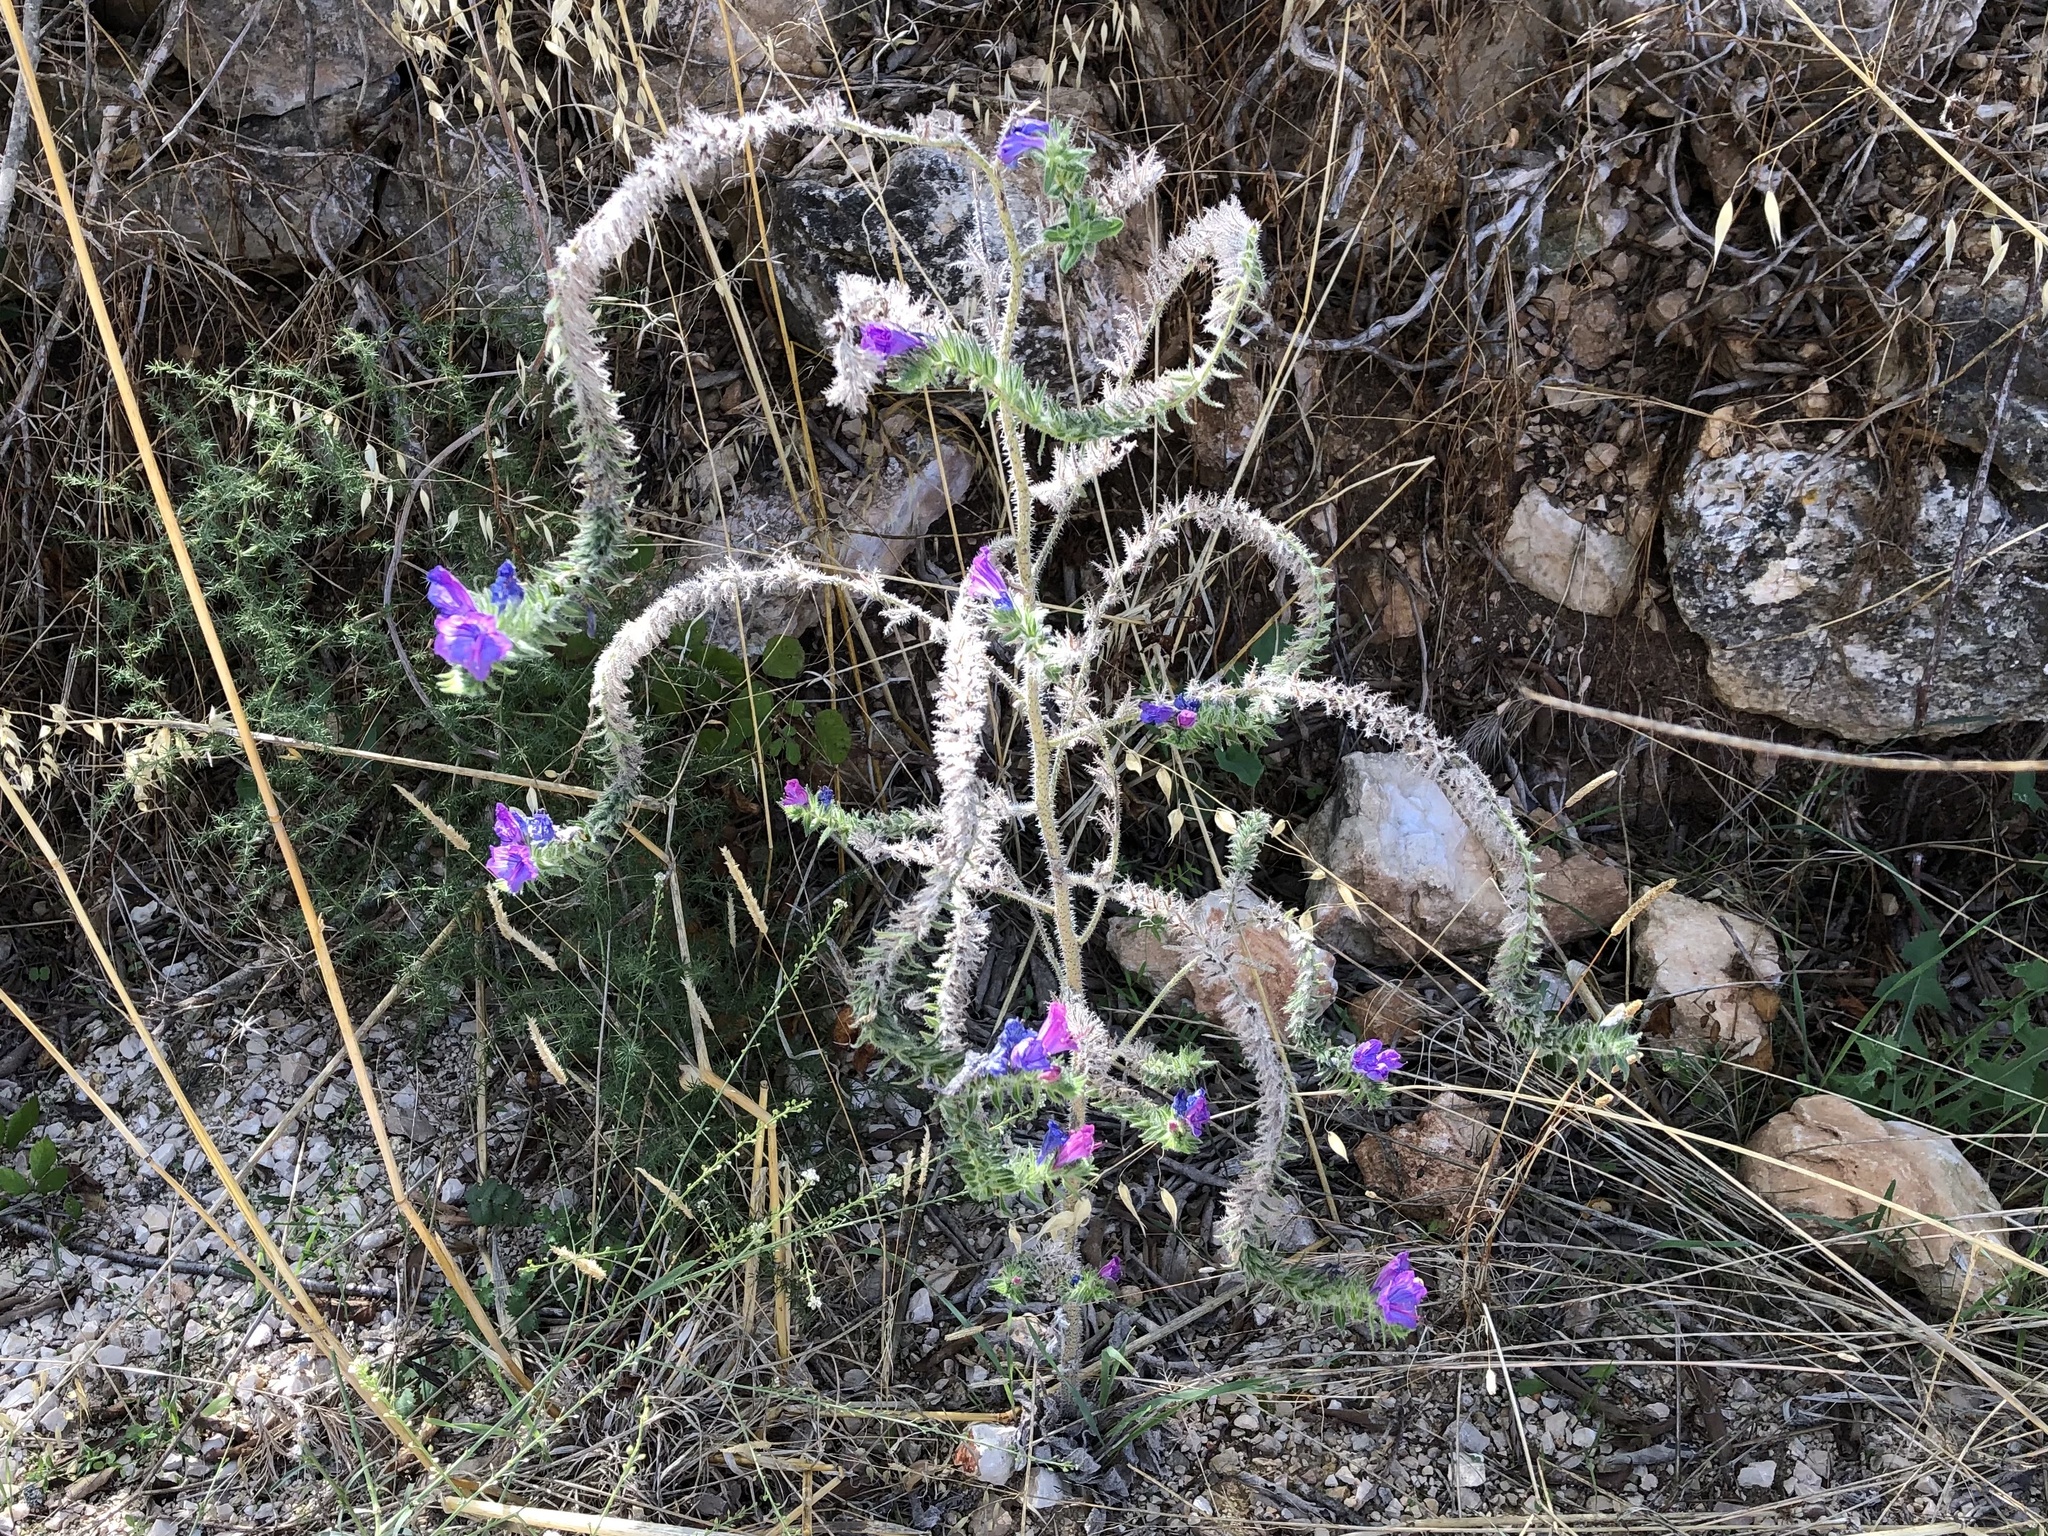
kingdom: Plantae
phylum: Tracheophyta
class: Magnoliopsida
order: Boraginales
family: Boraginaceae
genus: Echium
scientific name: Echium vulgare
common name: Common viper's bugloss
